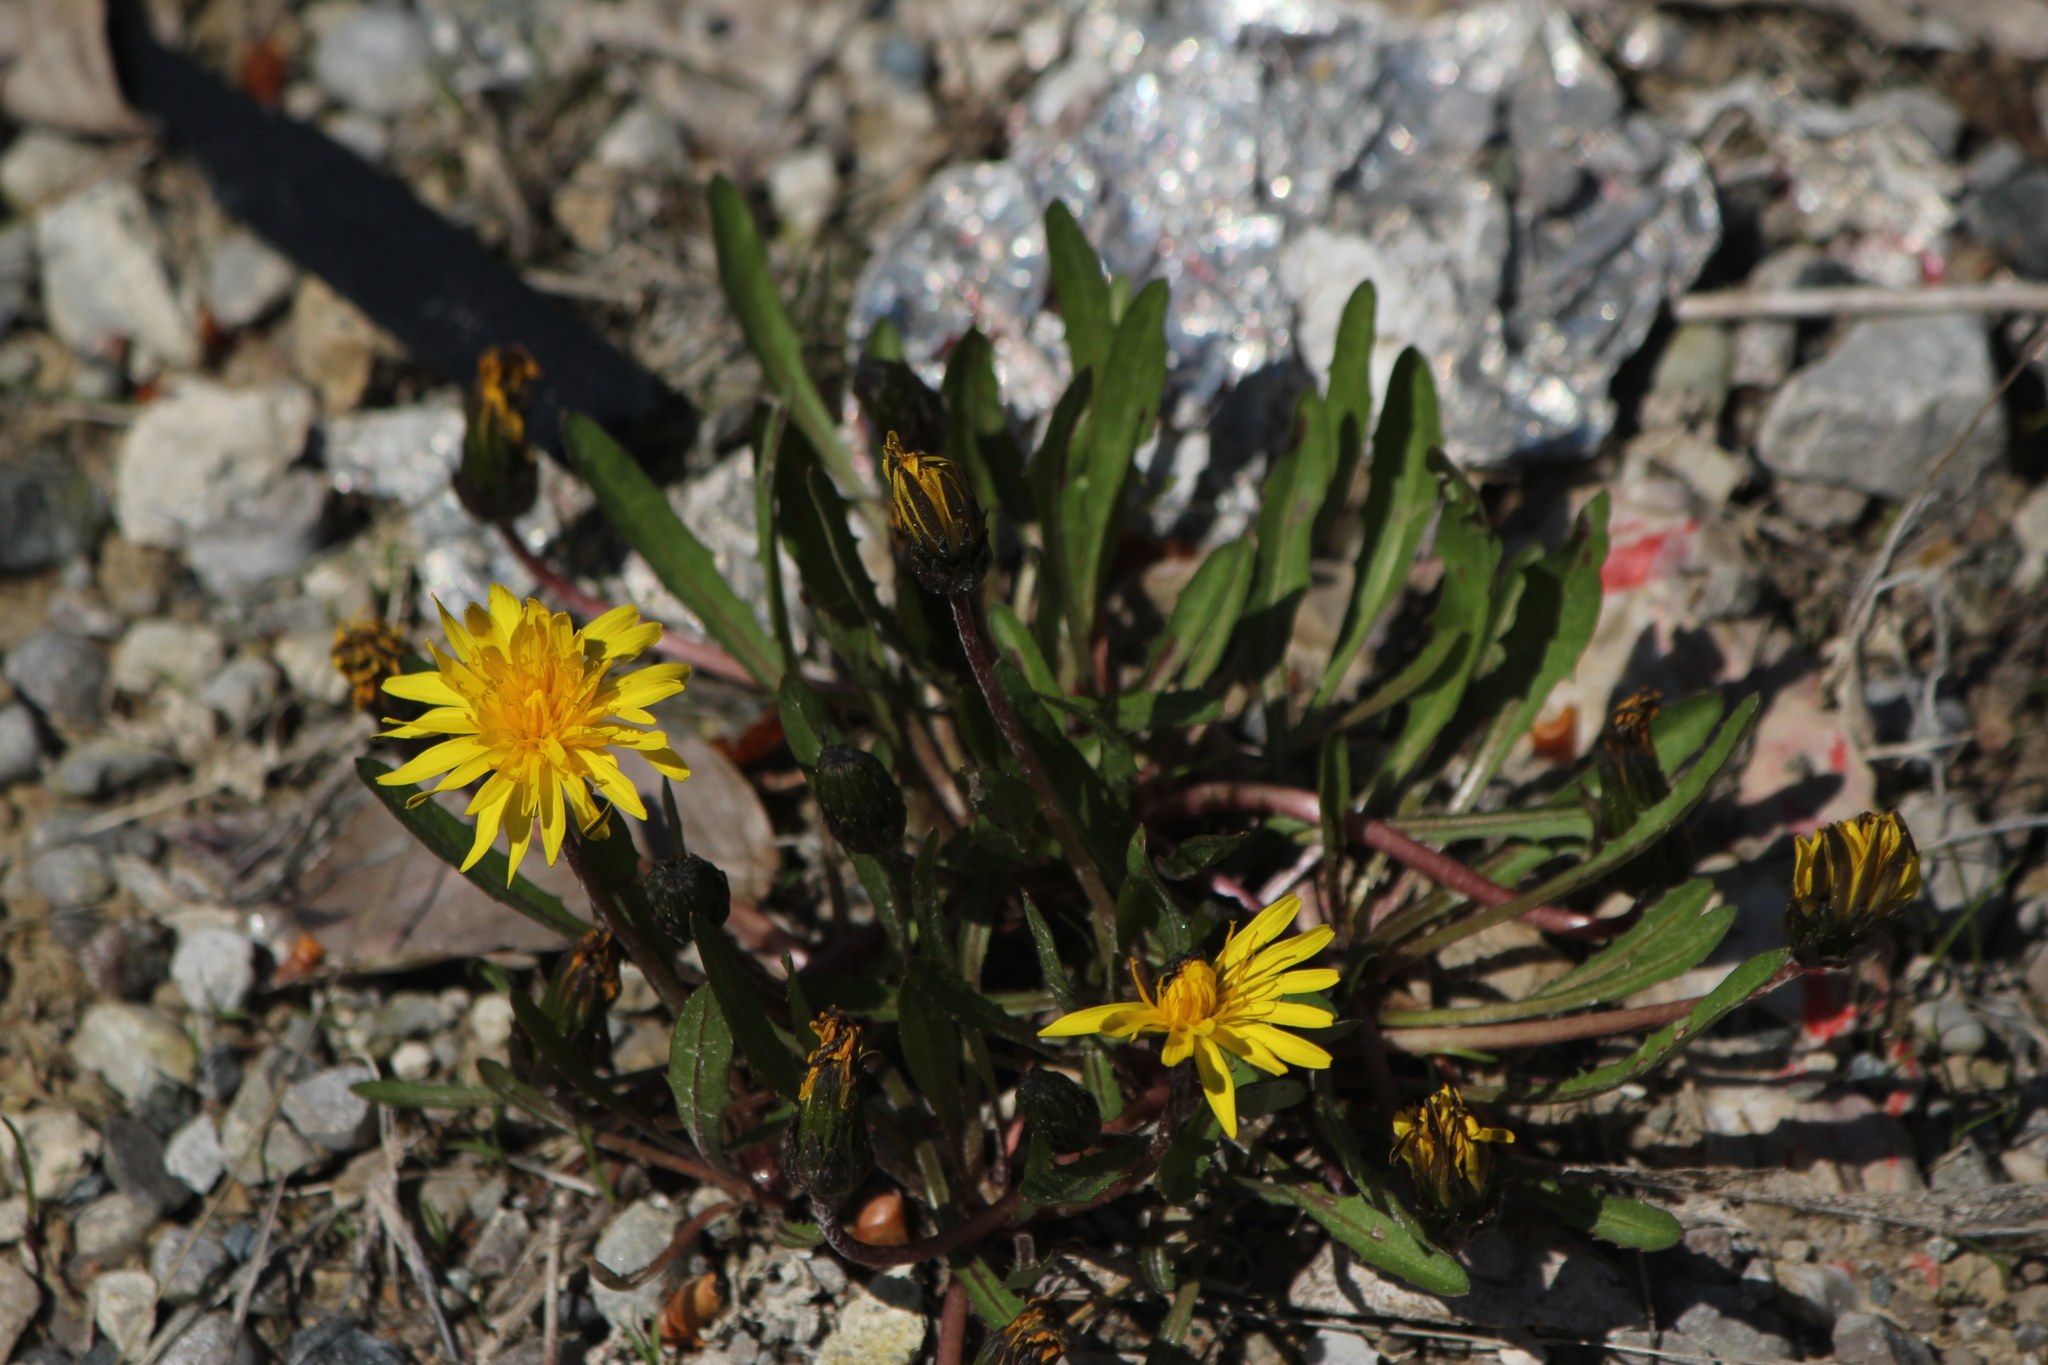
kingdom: Plantae
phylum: Tracheophyta
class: Magnoliopsida
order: Asterales
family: Asteraceae
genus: Taraxacum
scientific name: Taraxacum palustre
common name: Marsh dandelion
